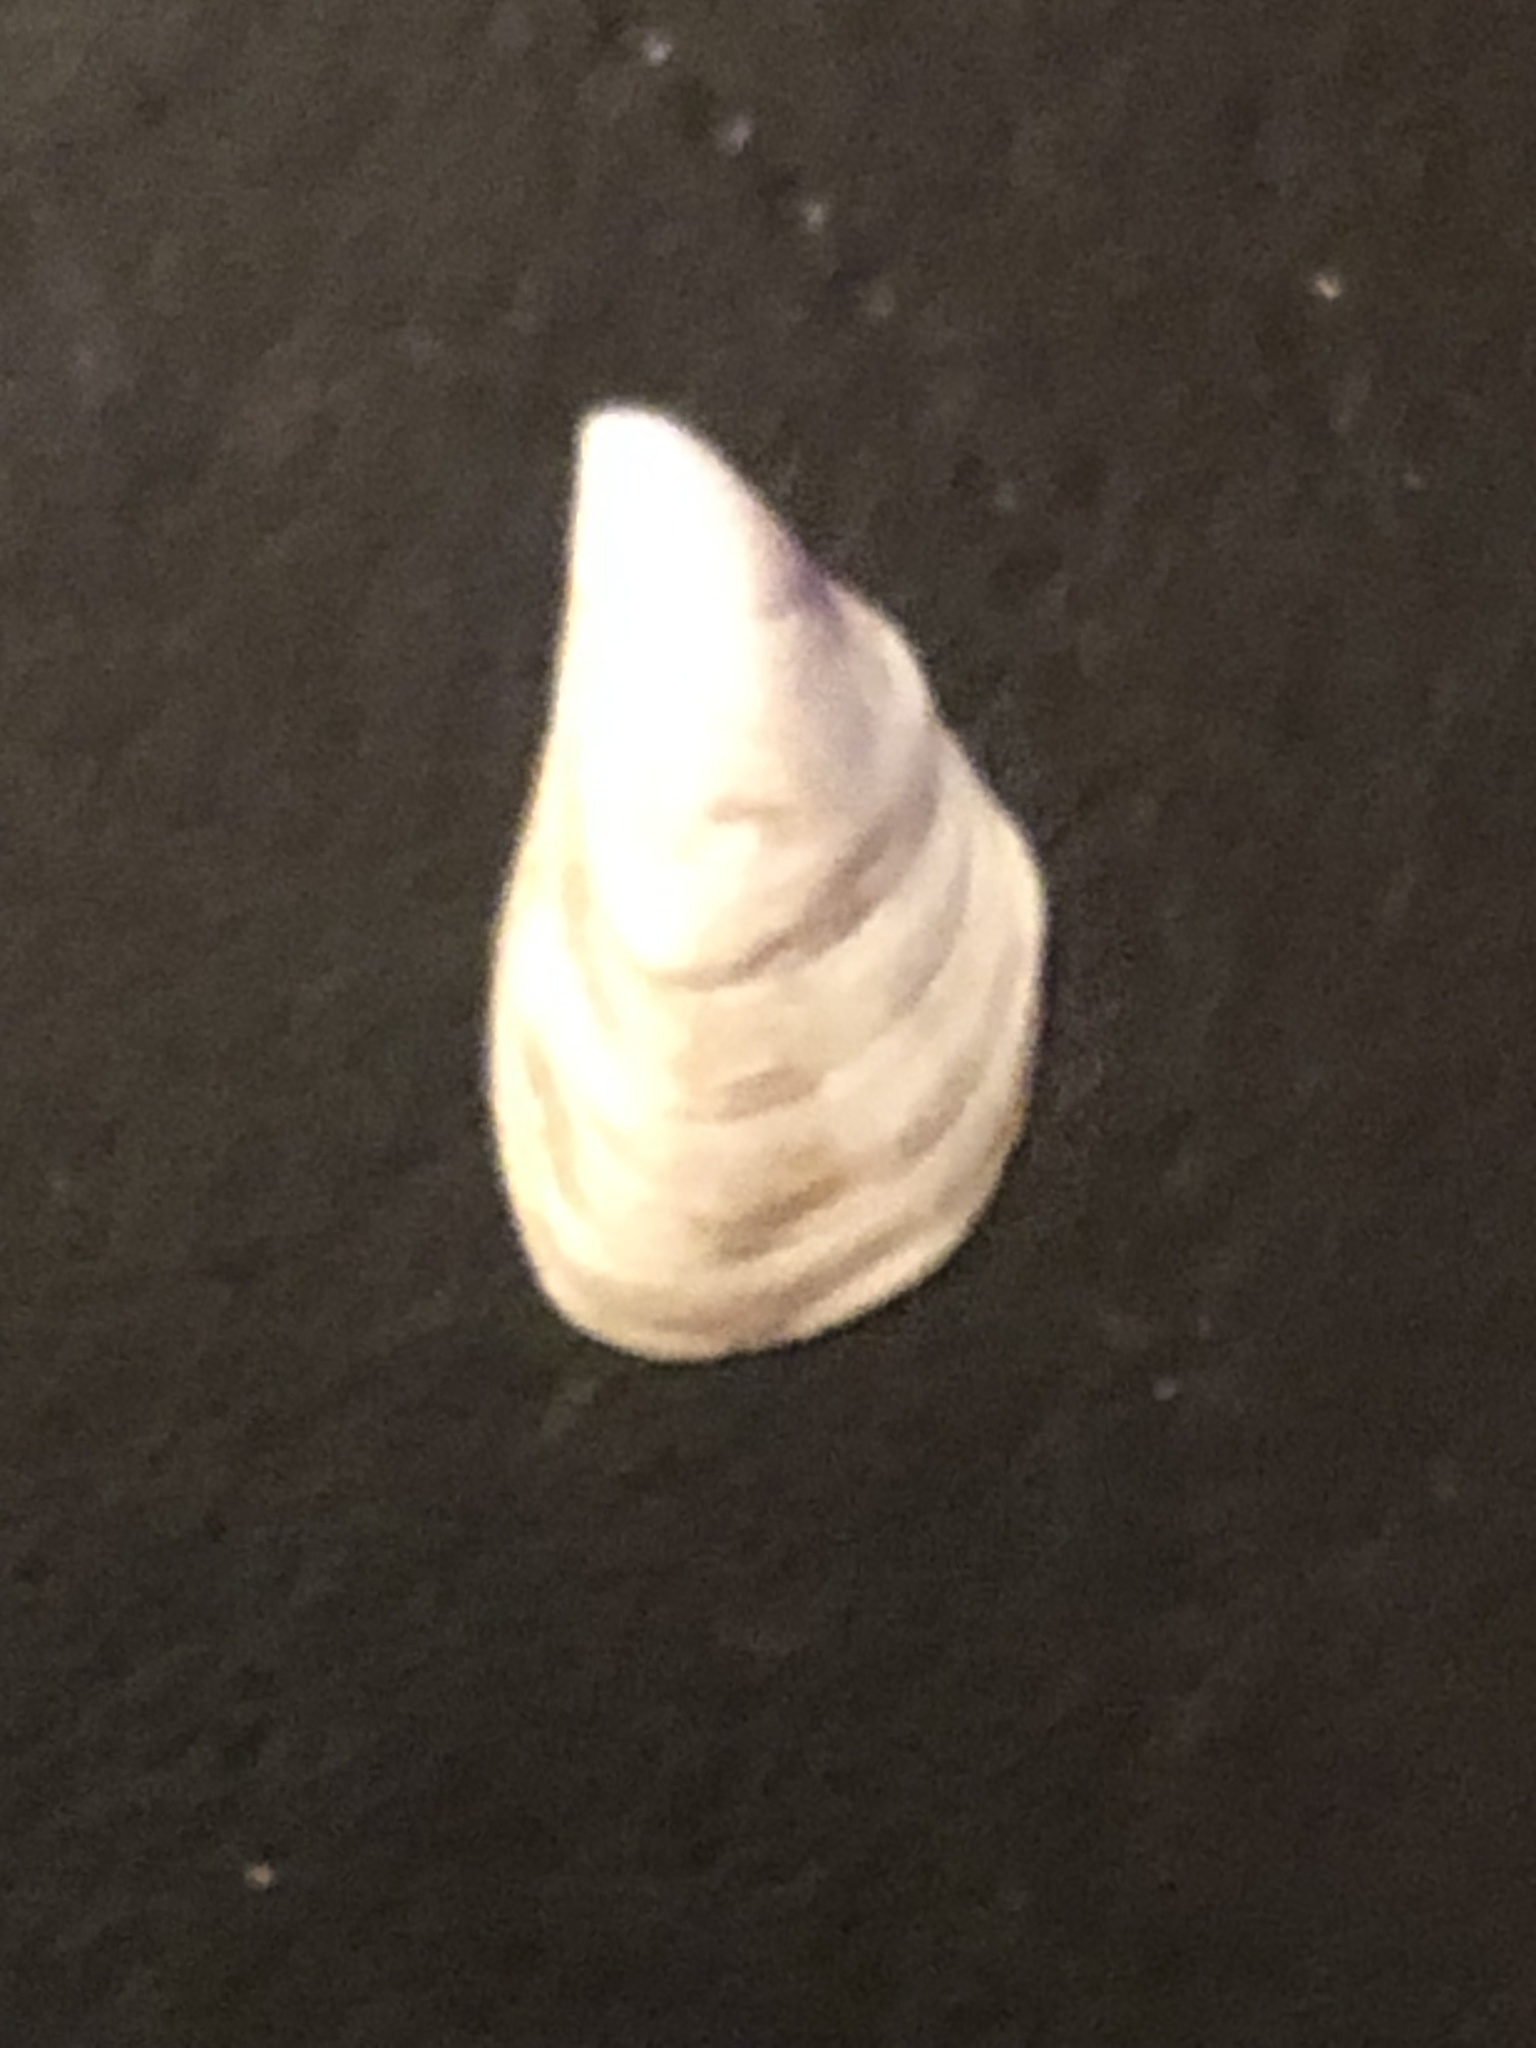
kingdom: Animalia
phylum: Mollusca
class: Bivalvia
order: Myida
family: Dreissenidae
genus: Dreissena
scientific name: Dreissena bugensis
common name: Quagga mussel
